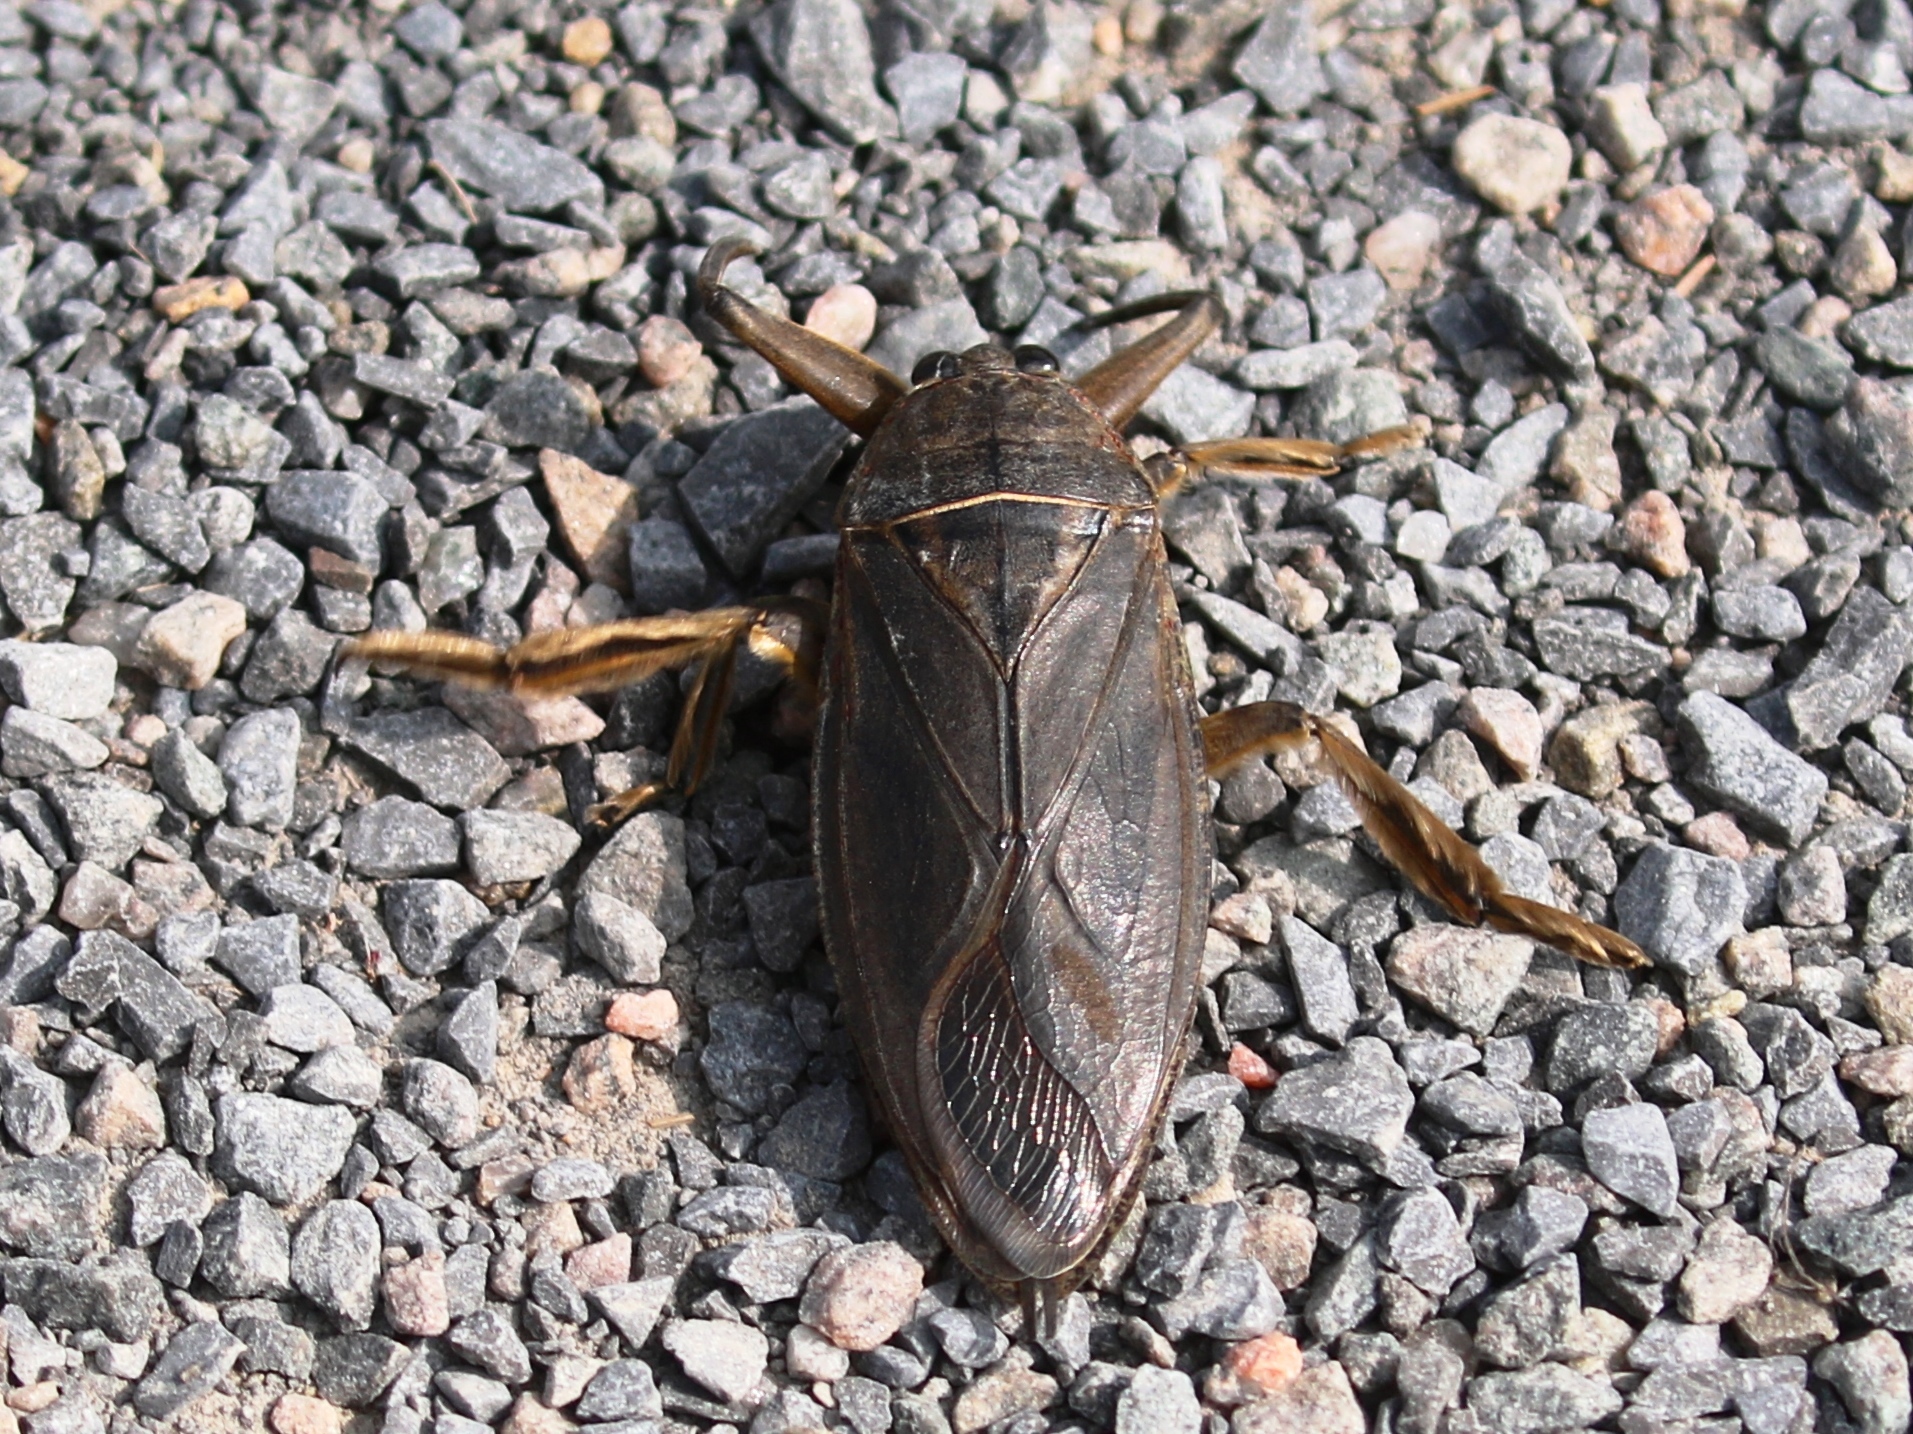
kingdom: Animalia
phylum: Arthropoda
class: Insecta
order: Hemiptera
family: Belostomatidae
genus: Lethocerus
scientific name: Lethocerus americanus
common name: Giant water bug
